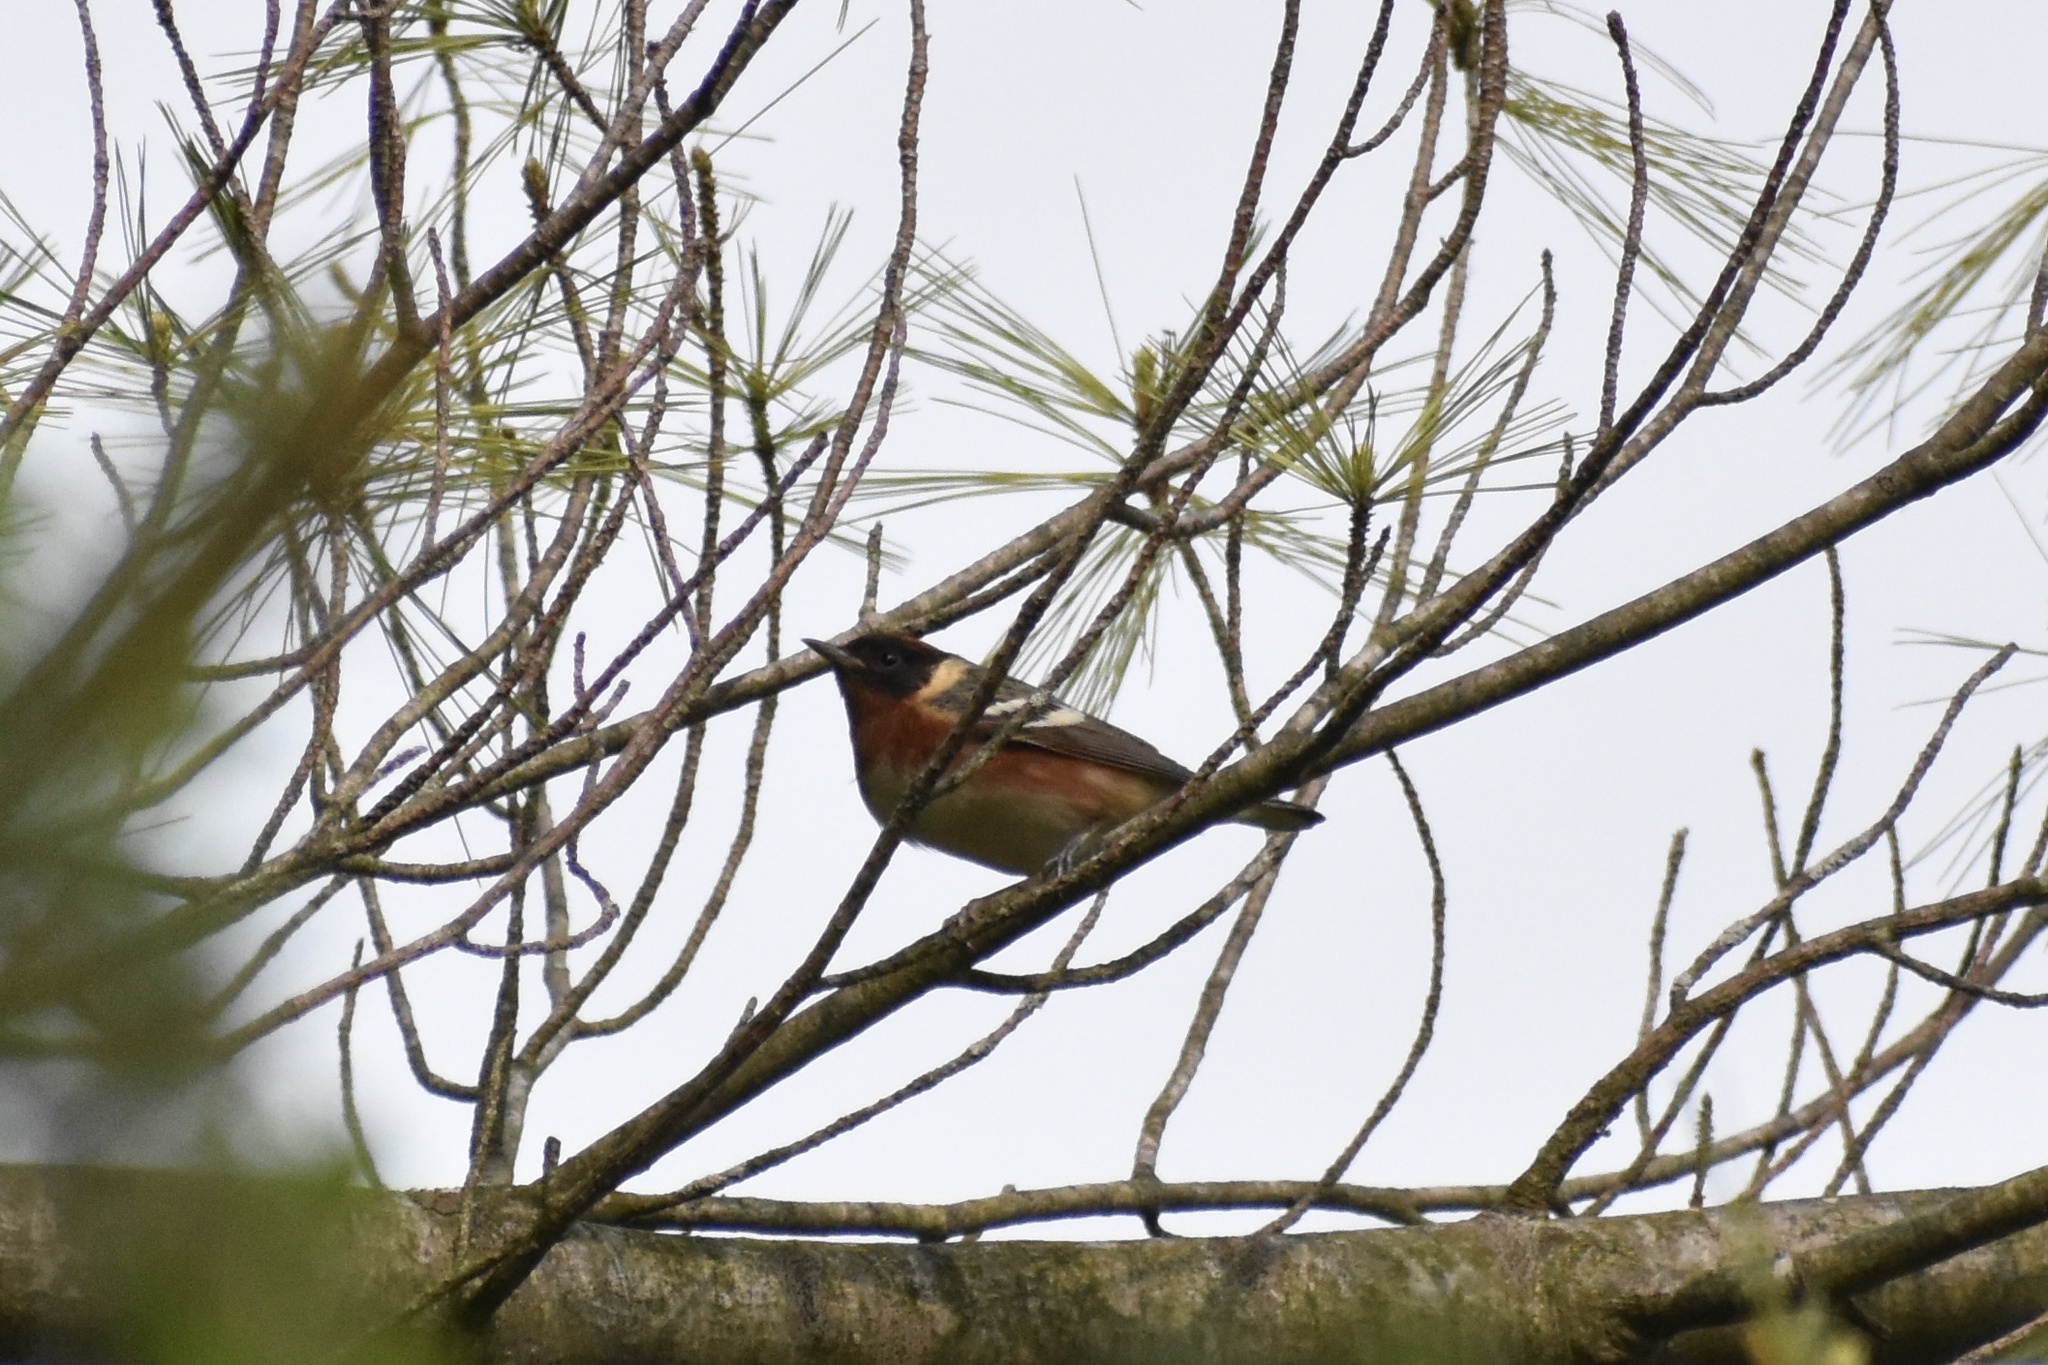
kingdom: Animalia
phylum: Chordata
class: Aves
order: Passeriformes
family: Parulidae
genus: Setophaga
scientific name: Setophaga castanea
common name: Bay-breasted warbler
